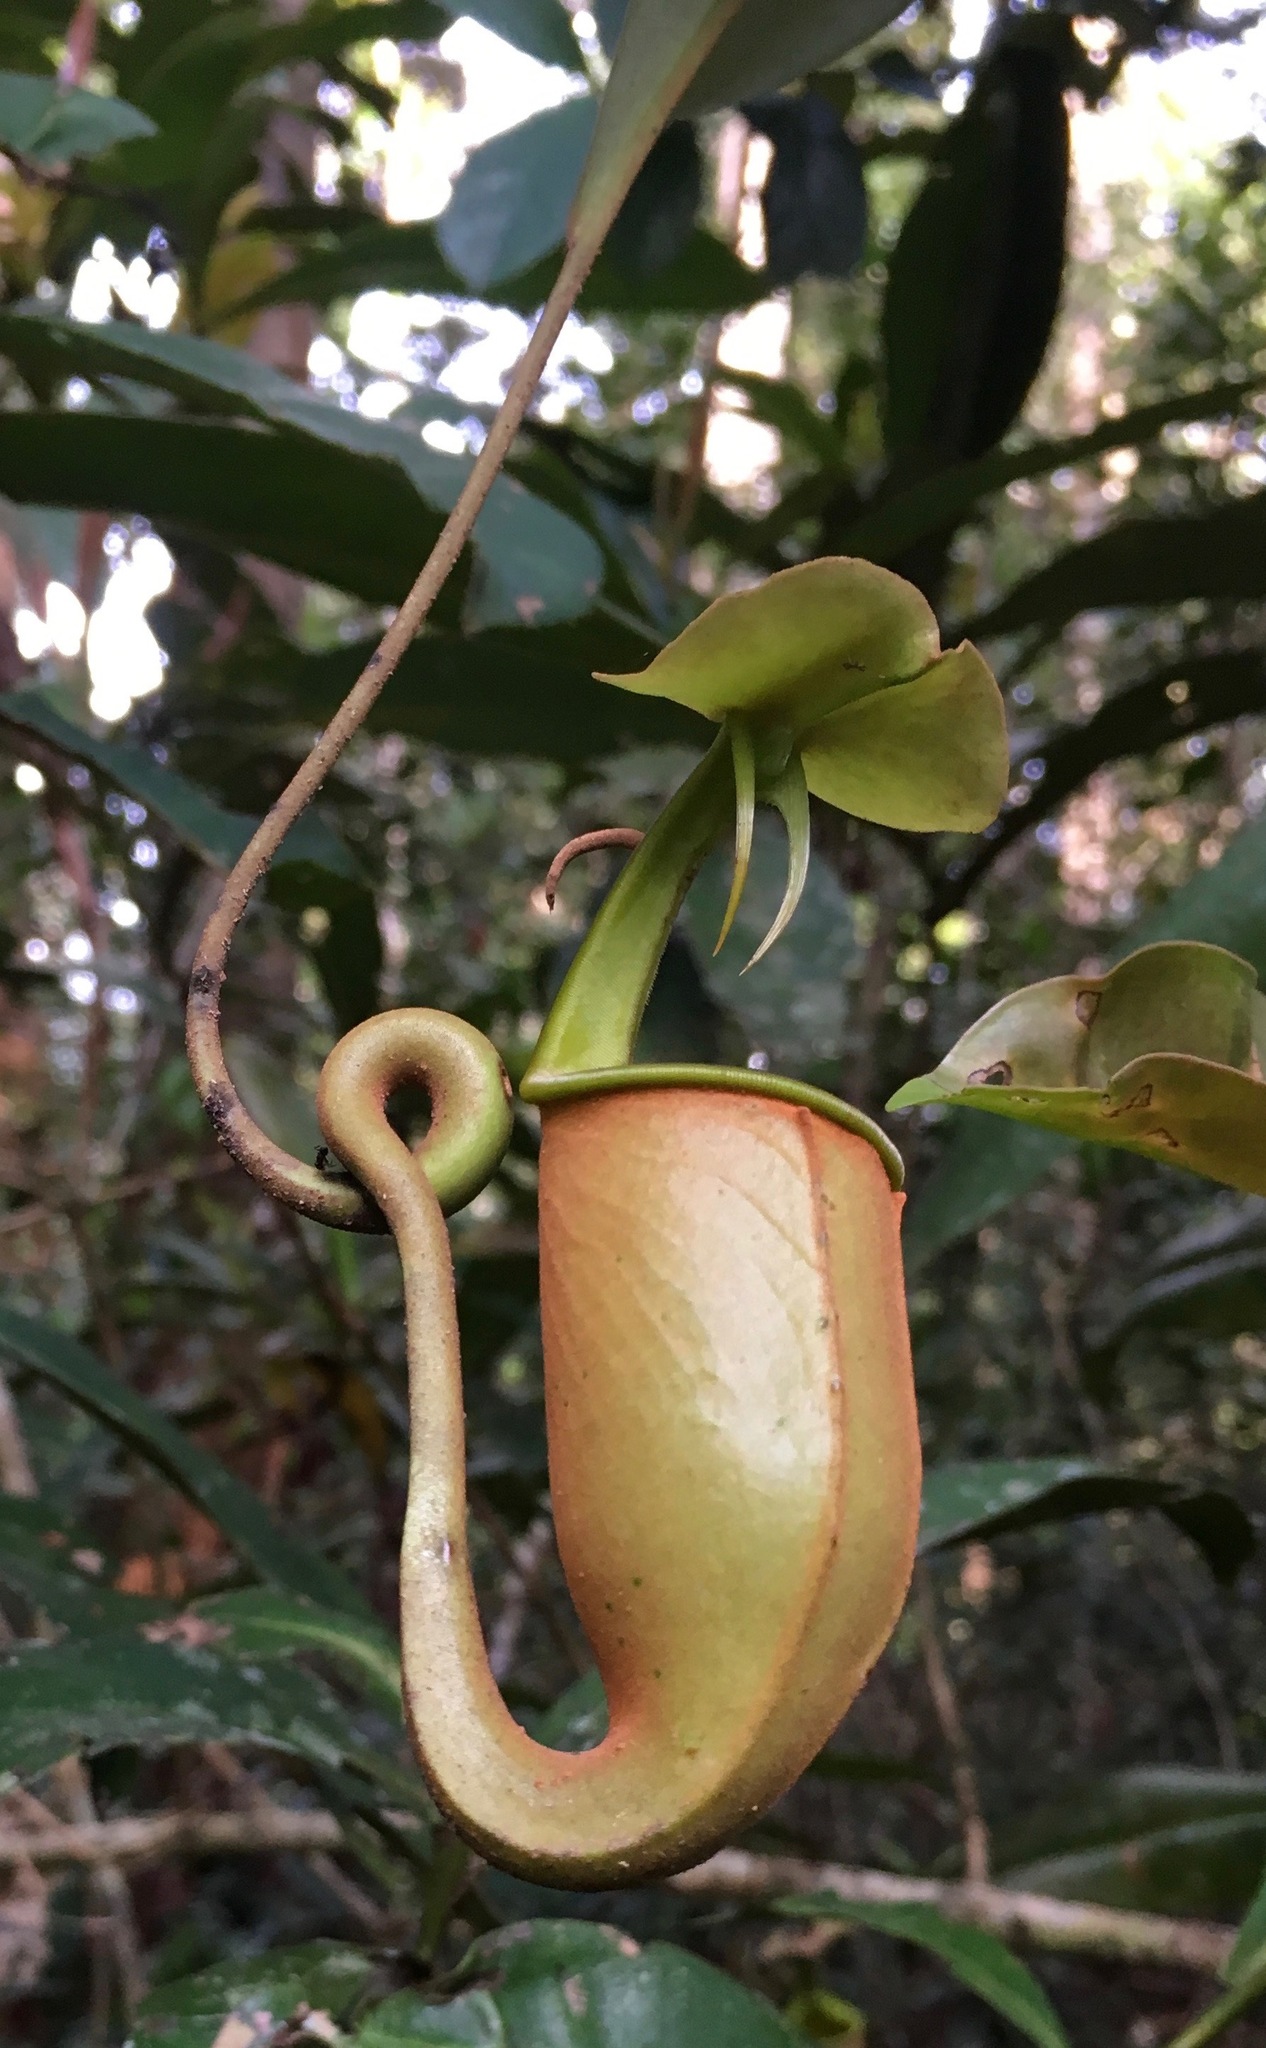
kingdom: Plantae
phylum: Tracheophyta
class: Magnoliopsida
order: Caryophyllales
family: Nepenthaceae
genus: Nepenthes
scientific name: Nepenthes bicalcarata
